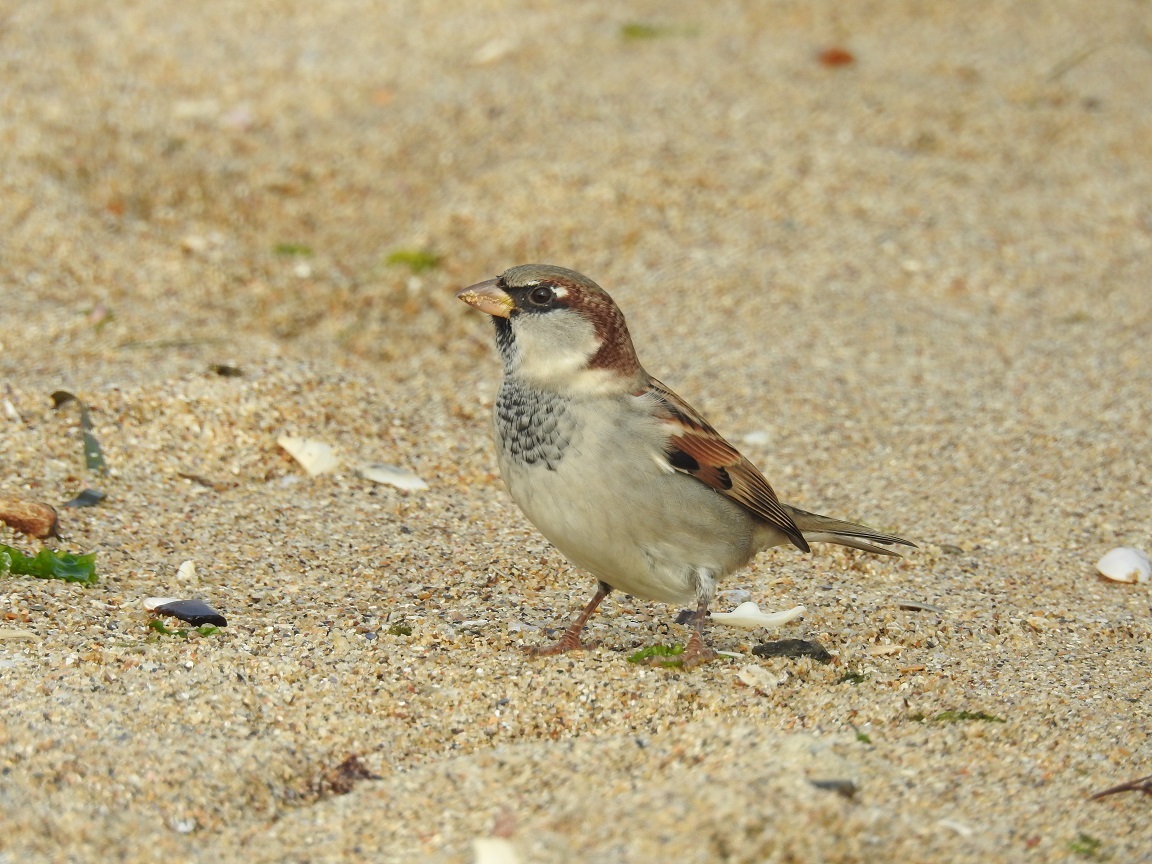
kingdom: Animalia
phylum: Chordata
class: Aves
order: Passeriformes
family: Passeridae
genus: Passer
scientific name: Passer domesticus
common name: House sparrow
